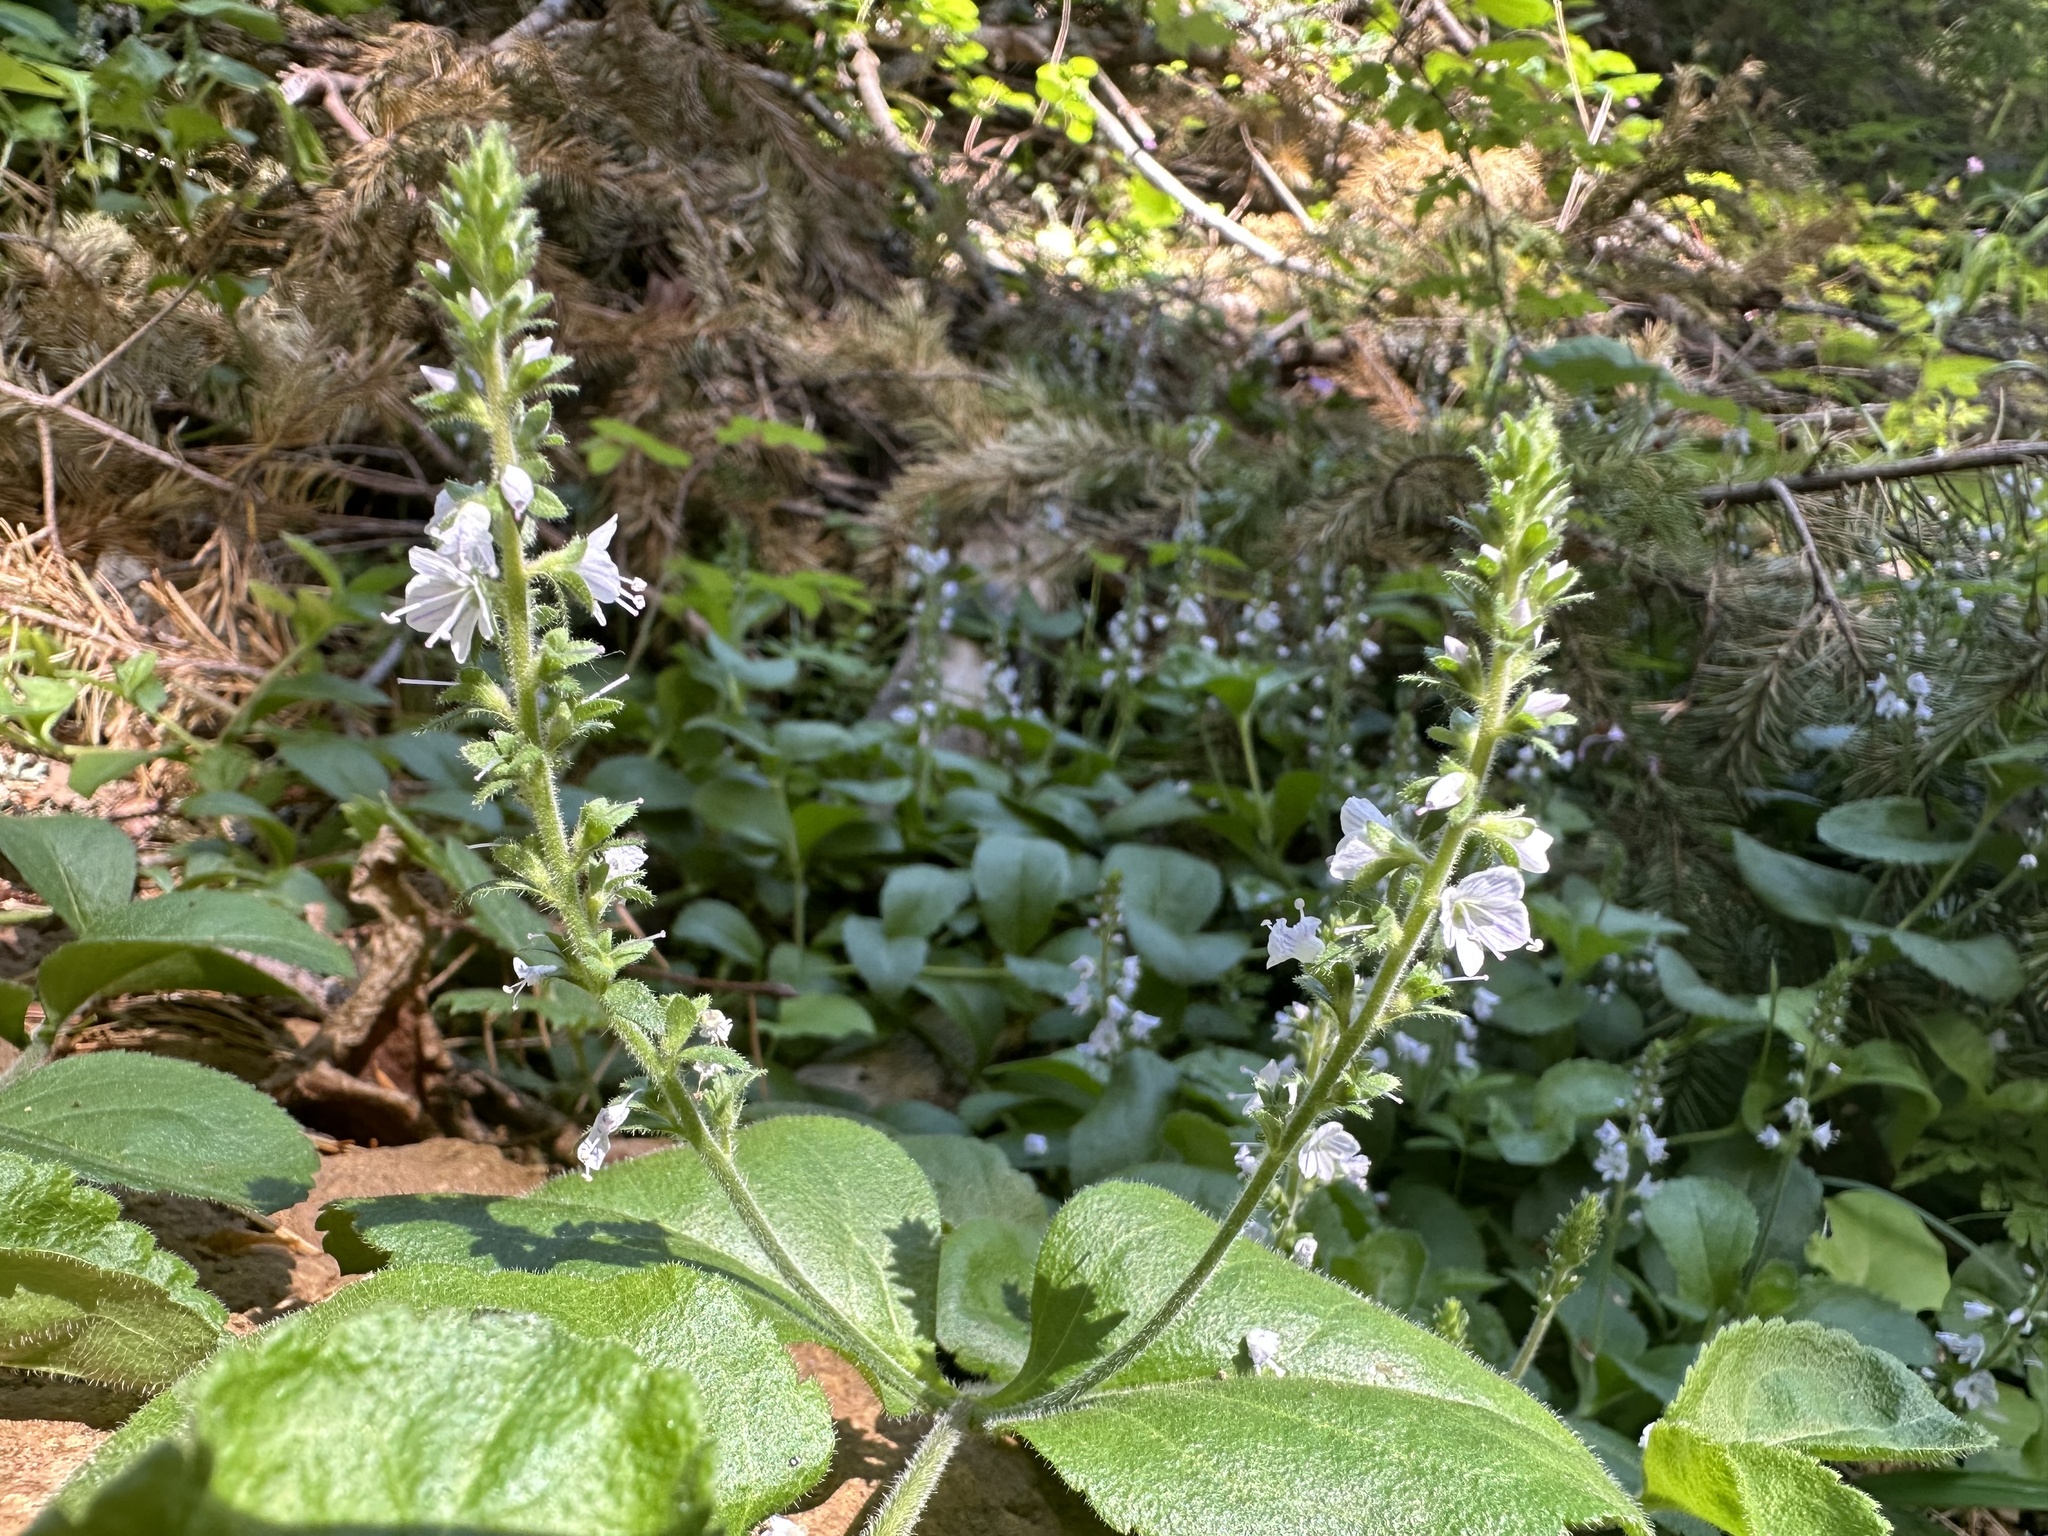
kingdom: Plantae
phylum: Tracheophyta
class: Magnoliopsida
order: Lamiales
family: Plantaginaceae
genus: Veronica
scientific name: Veronica officinalis
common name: Common speedwell
